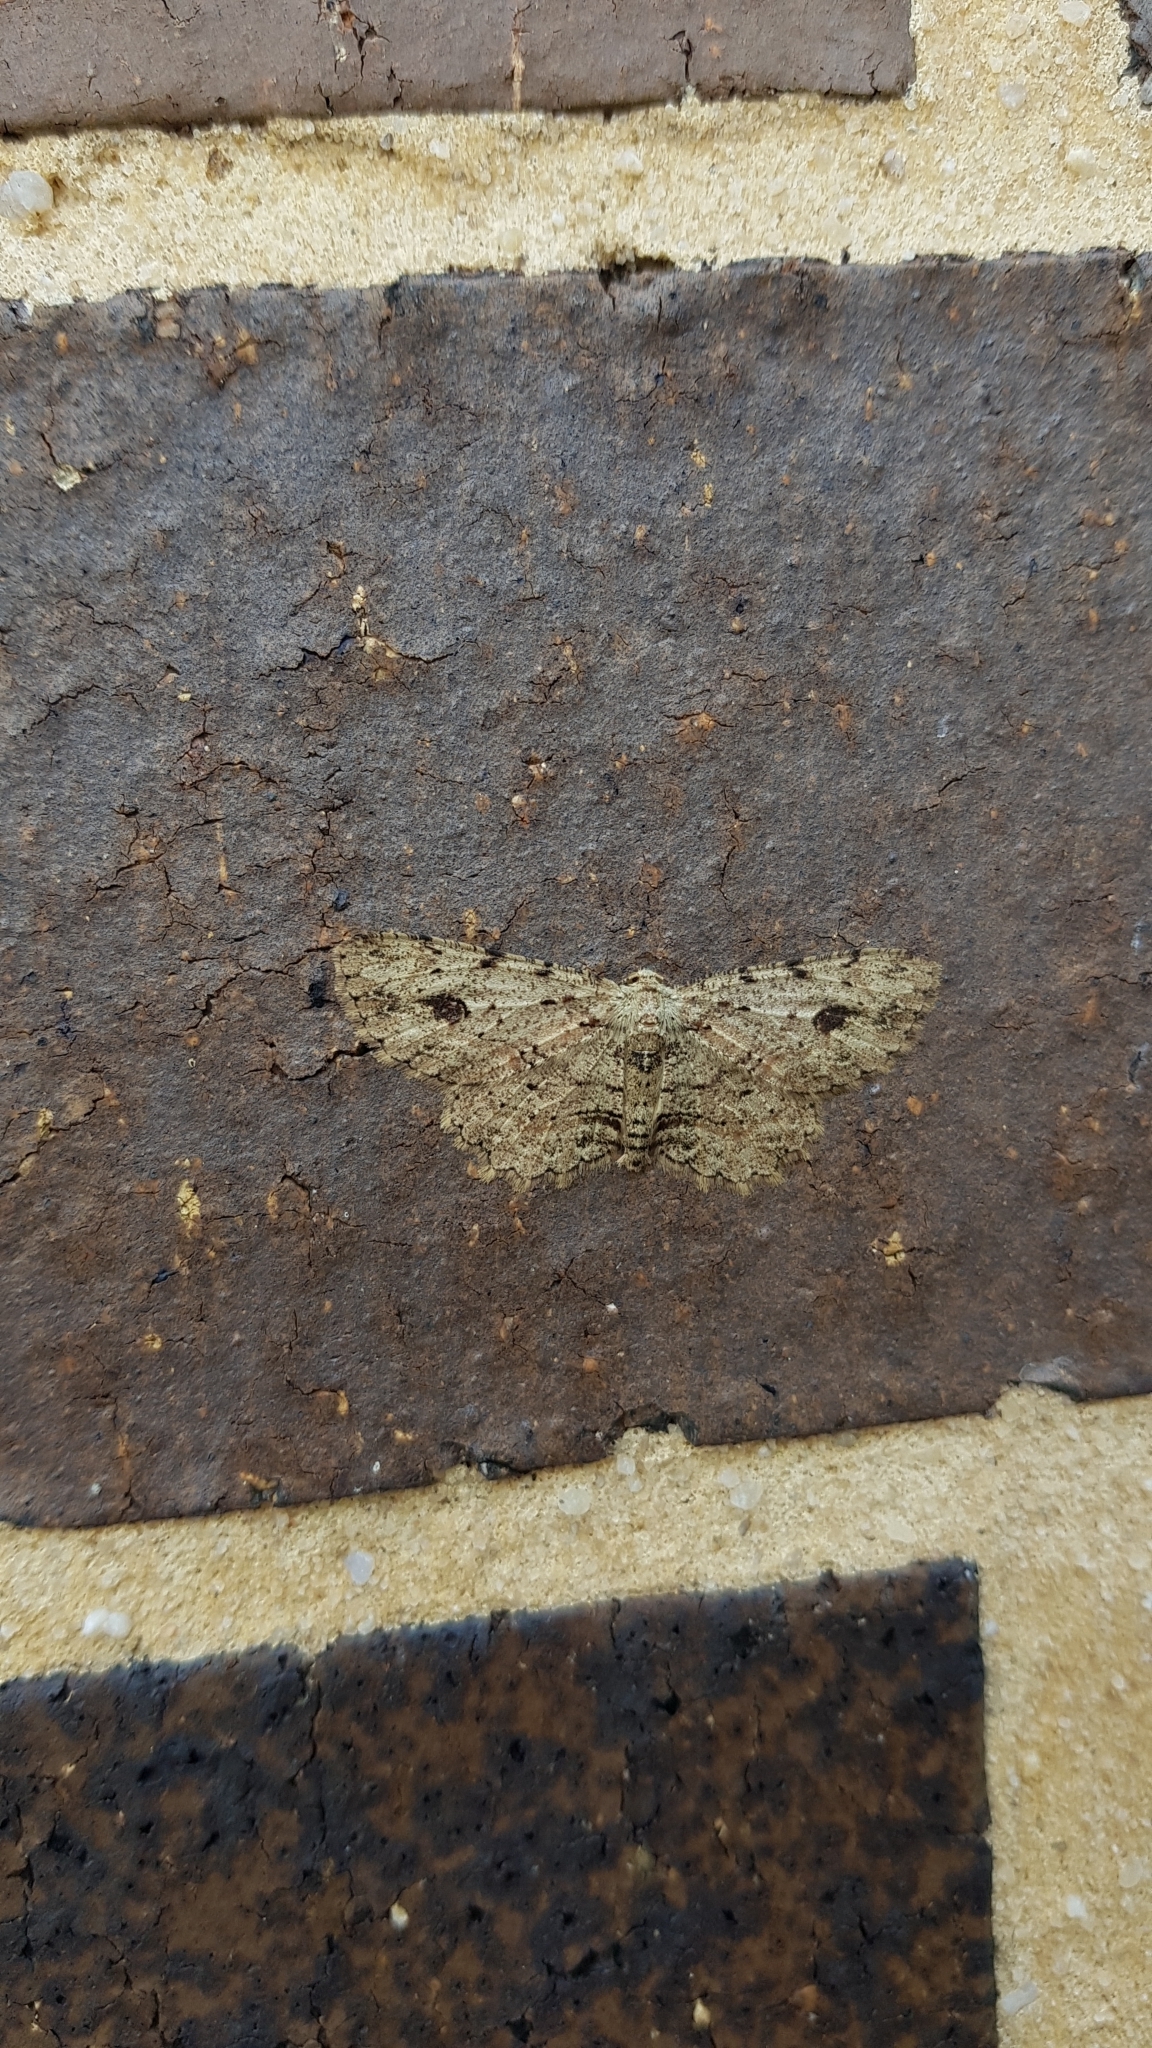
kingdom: Animalia
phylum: Arthropoda
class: Insecta
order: Lepidoptera
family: Geometridae
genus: Ectropis
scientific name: Ectropis bispinaria
